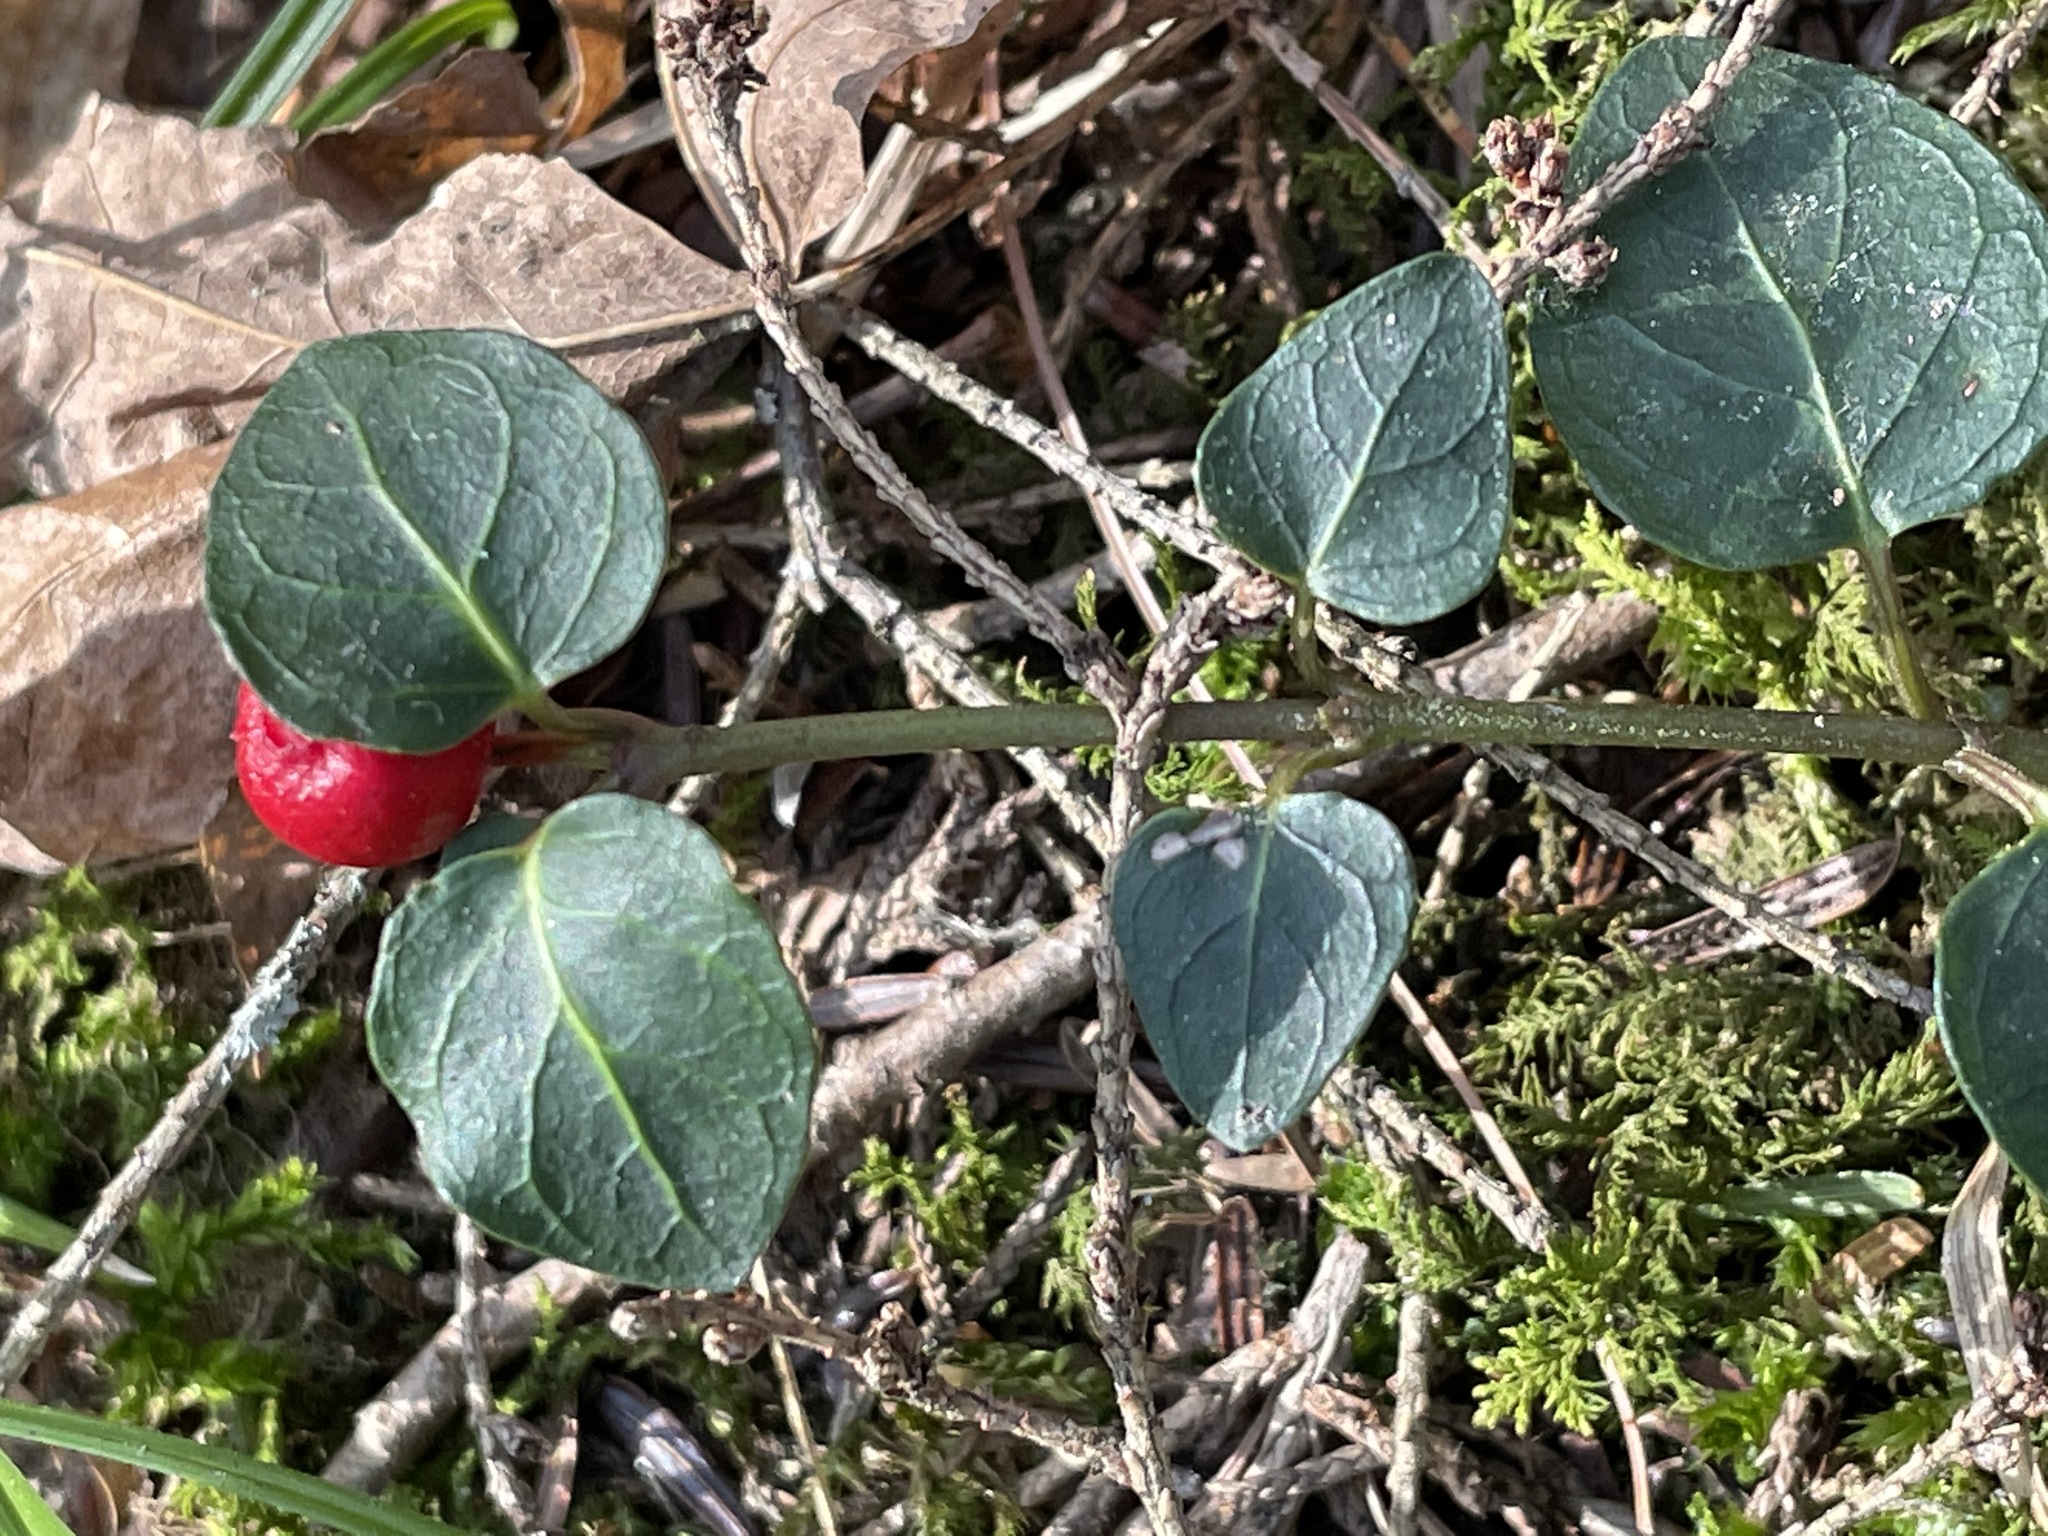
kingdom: Plantae
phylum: Tracheophyta
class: Magnoliopsida
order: Gentianales
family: Rubiaceae
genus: Mitchella
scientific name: Mitchella repens
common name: Partridge-berry
